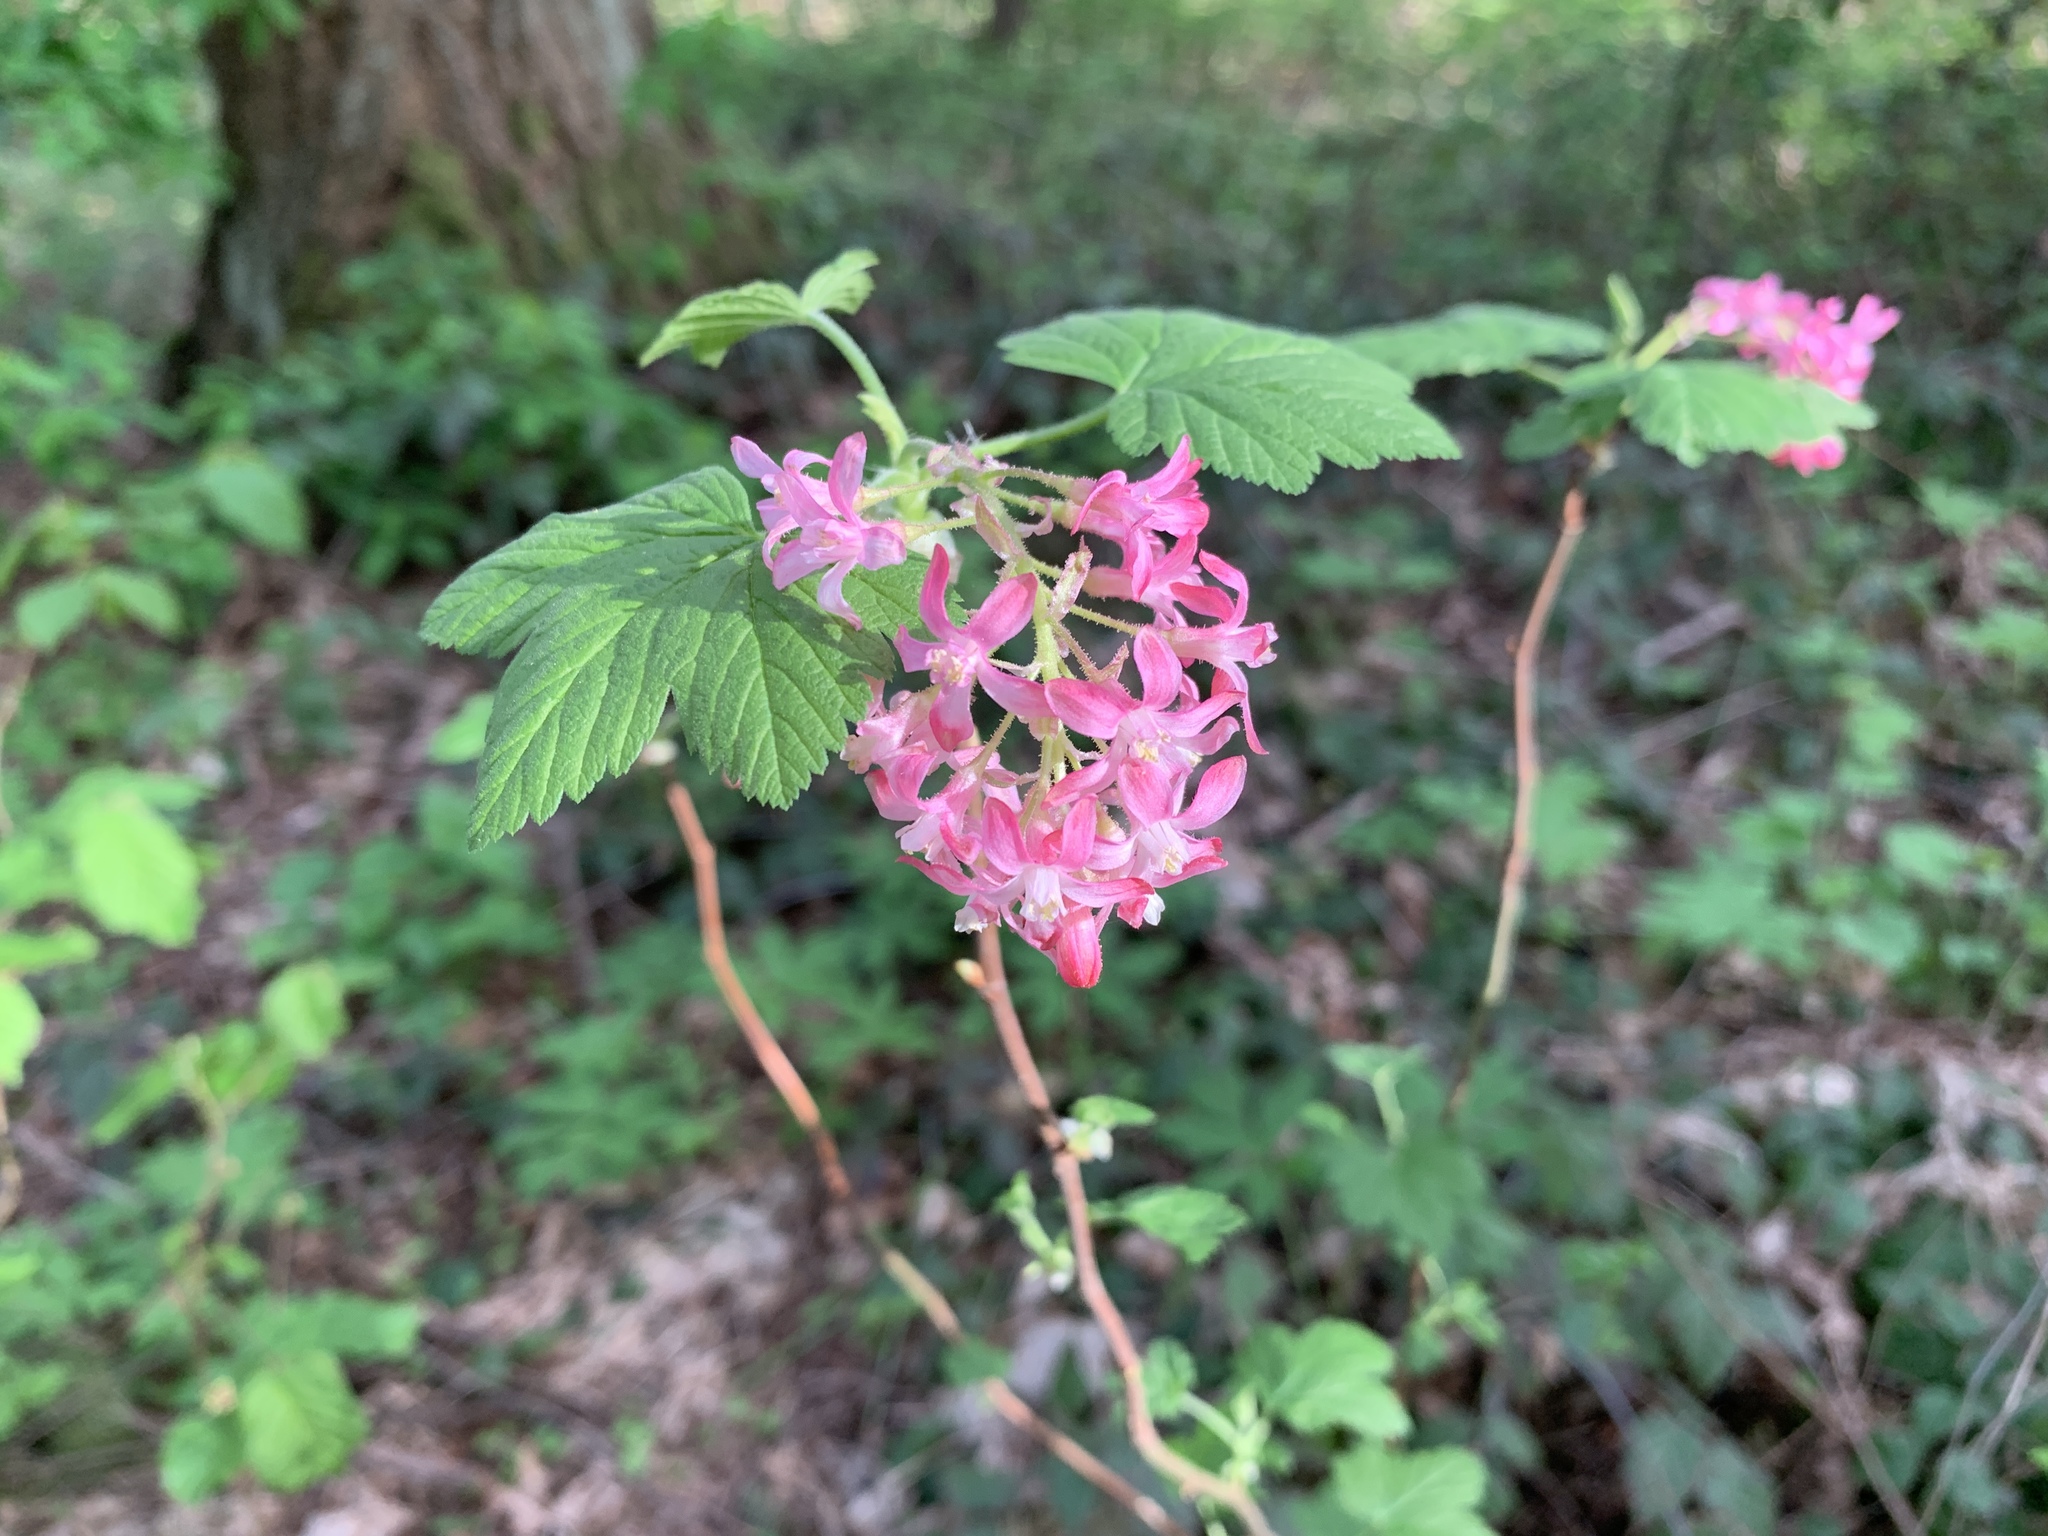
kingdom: Plantae
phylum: Tracheophyta
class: Magnoliopsida
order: Saxifragales
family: Grossulariaceae
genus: Ribes
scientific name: Ribes sanguineum
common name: Flowering currant
